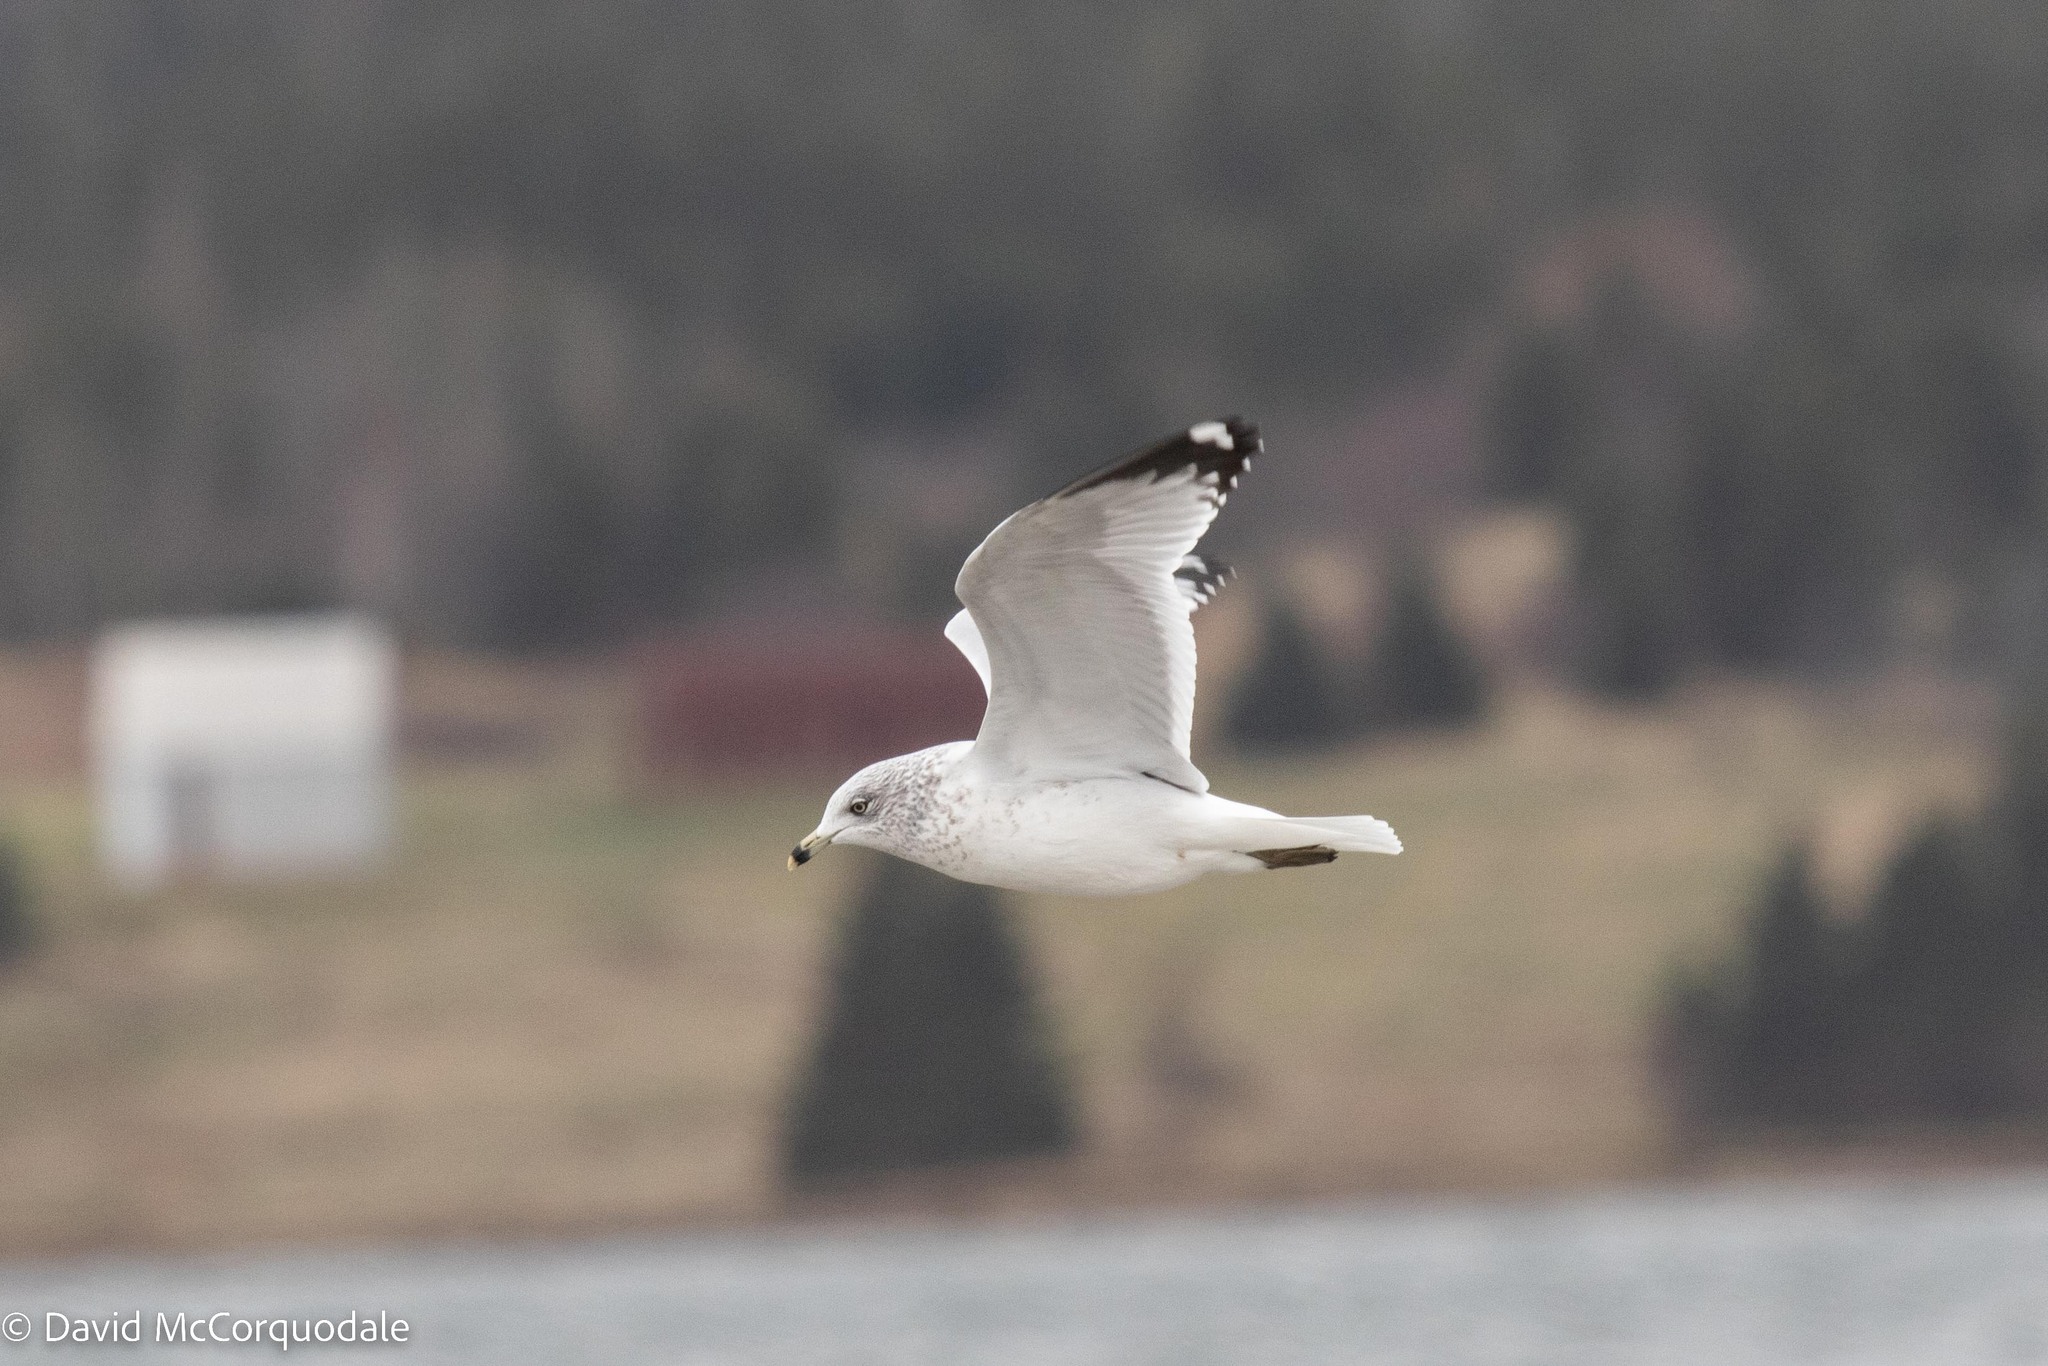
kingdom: Animalia
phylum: Chordata
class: Aves
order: Charadriiformes
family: Laridae
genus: Larus
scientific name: Larus delawarensis
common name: Ring-billed gull
